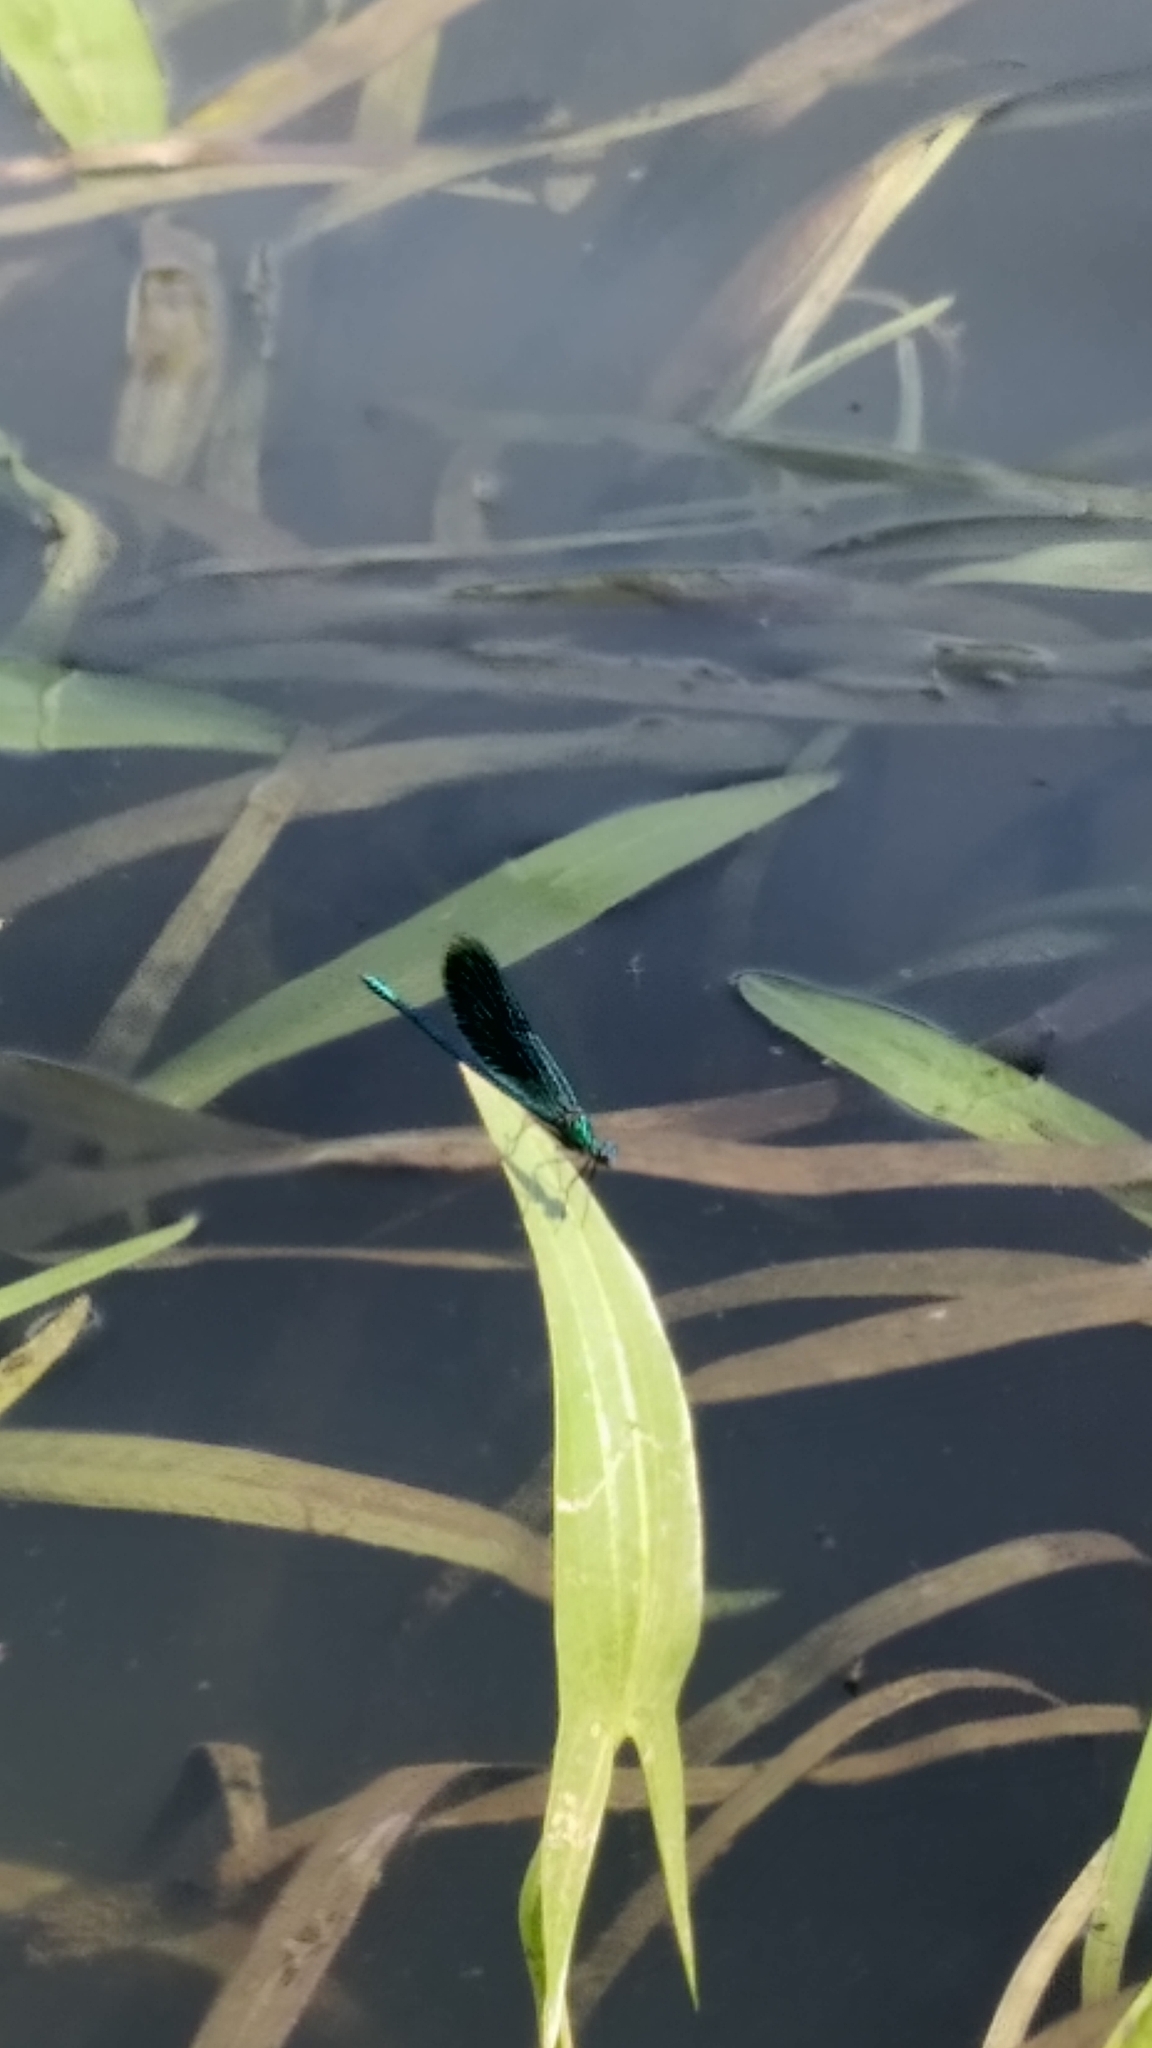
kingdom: Animalia
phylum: Arthropoda
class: Insecta
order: Odonata
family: Calopterygidae
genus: Calopteryx
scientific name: Calopteryx splendens
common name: Banded demoiselle
